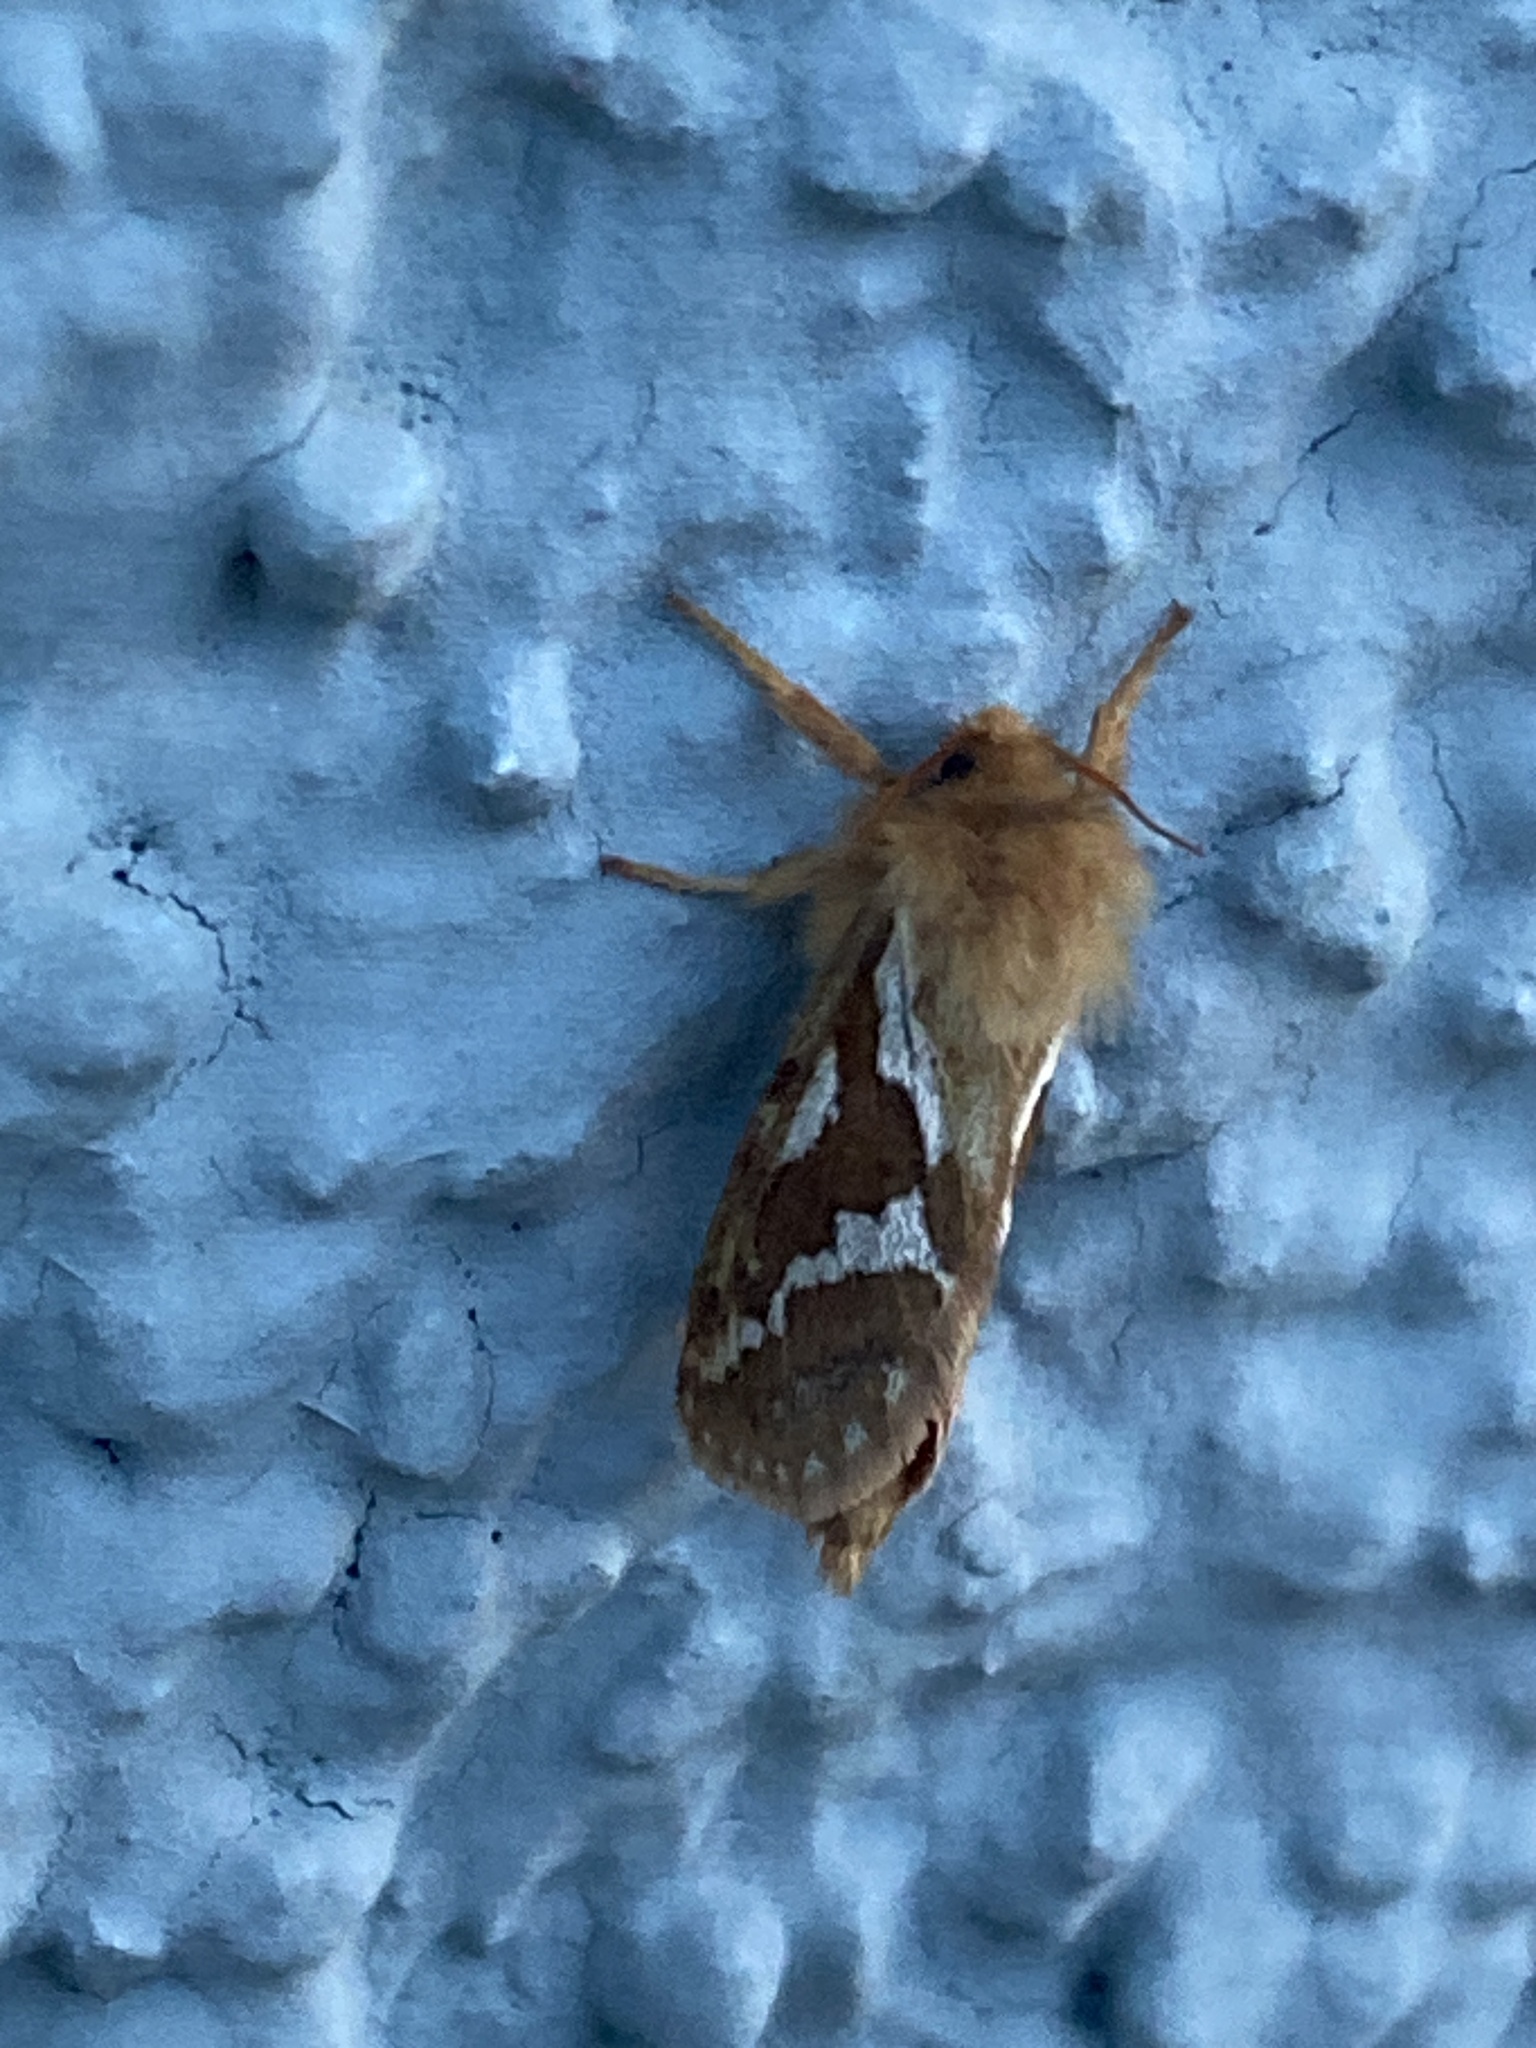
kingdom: Animalia
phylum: Arthropoda
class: Insecta
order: Lepidoptera
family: Hepialidae
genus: Korscheltellus
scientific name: Korscheltellus lupulina
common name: Common swift
